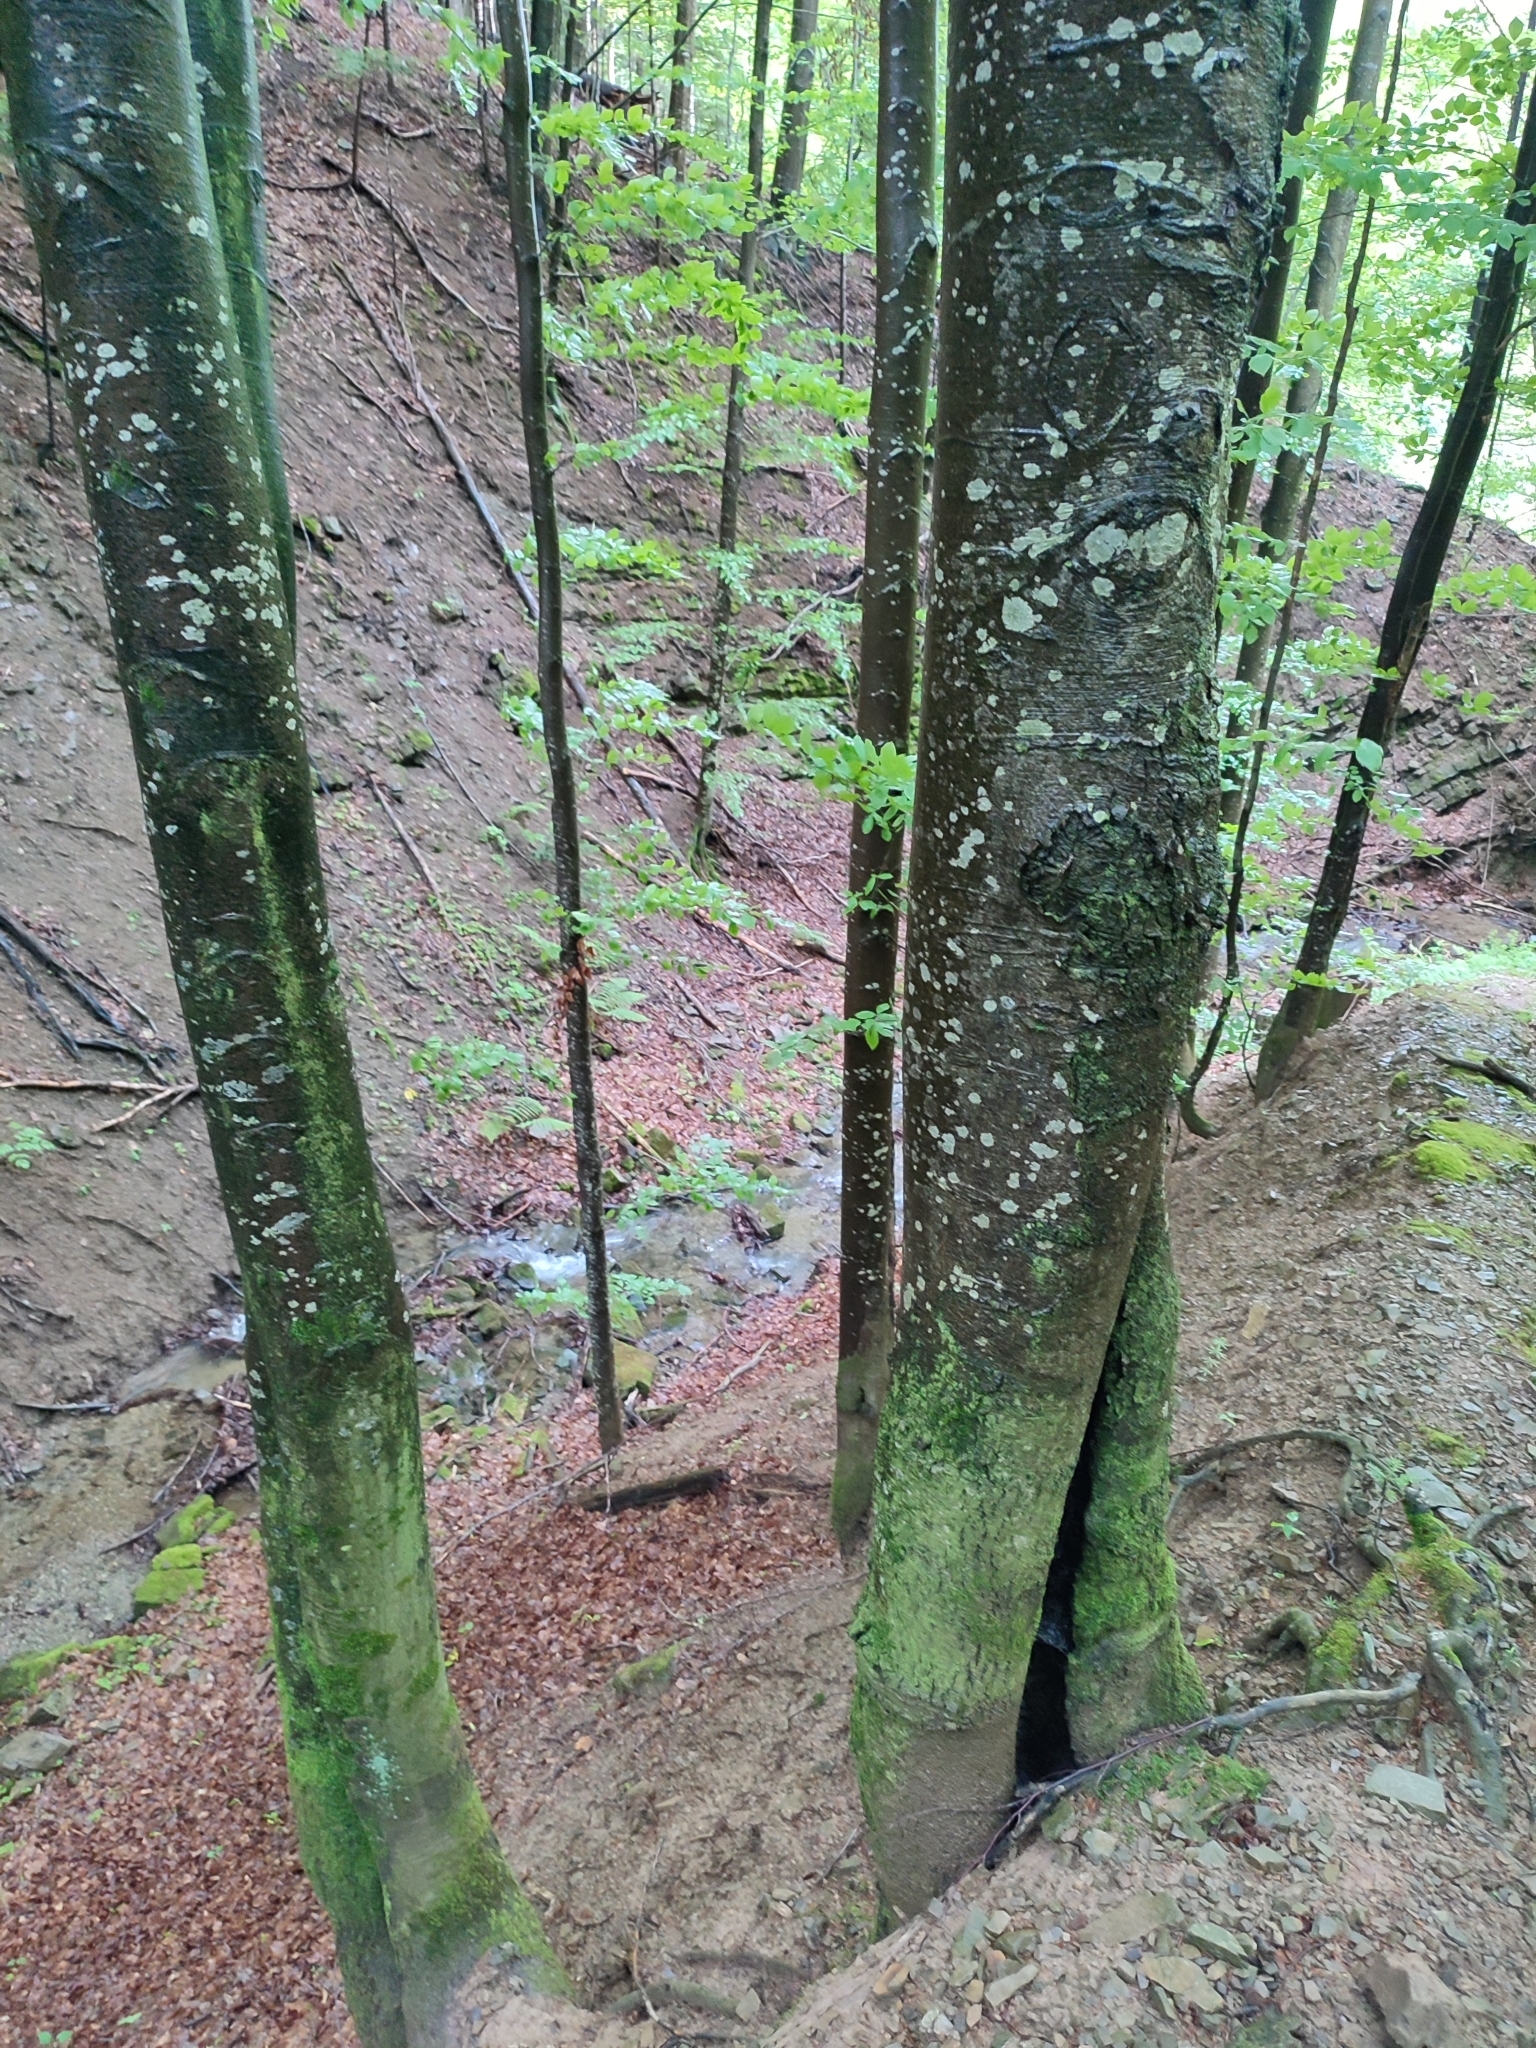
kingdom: Plantae
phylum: Tracheophyta
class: Magnoliopsida
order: Fagales
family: Fagaceae
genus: Fagus
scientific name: Fagus sylvatica
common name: Beech
